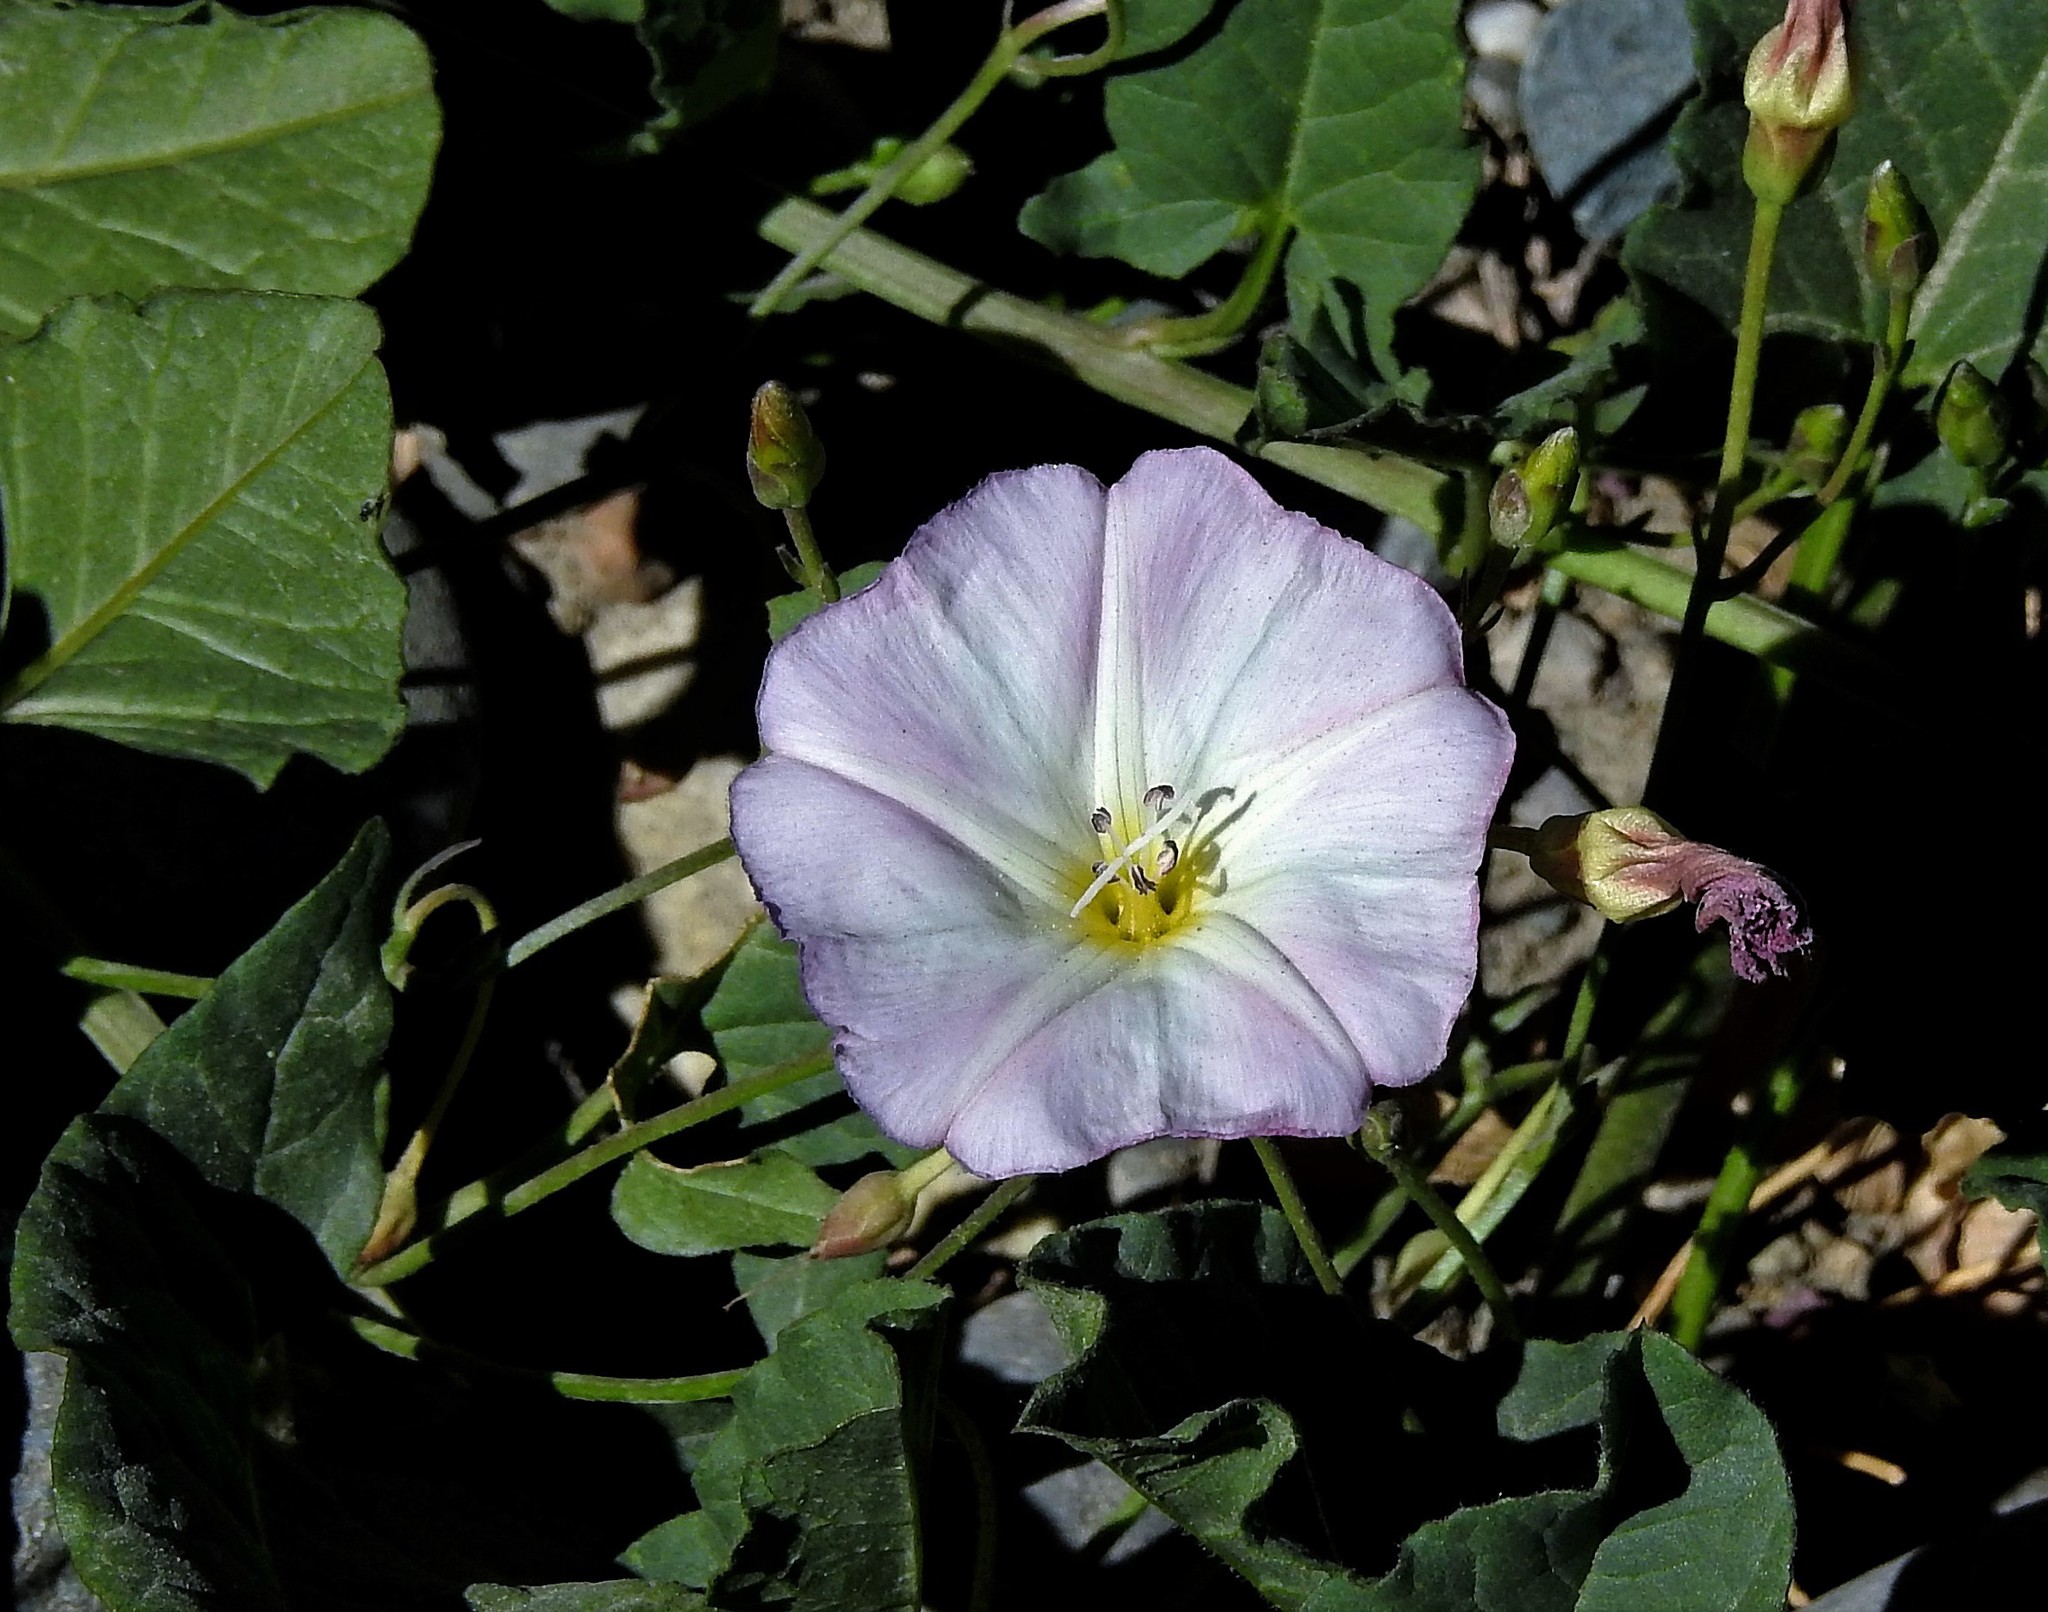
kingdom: Plantae
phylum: Tracheophyta
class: Magnoliopsida
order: Solanales
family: Convolvulaceae
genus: Convolvulus
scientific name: Convolvulus arvensis
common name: Field bindweed
